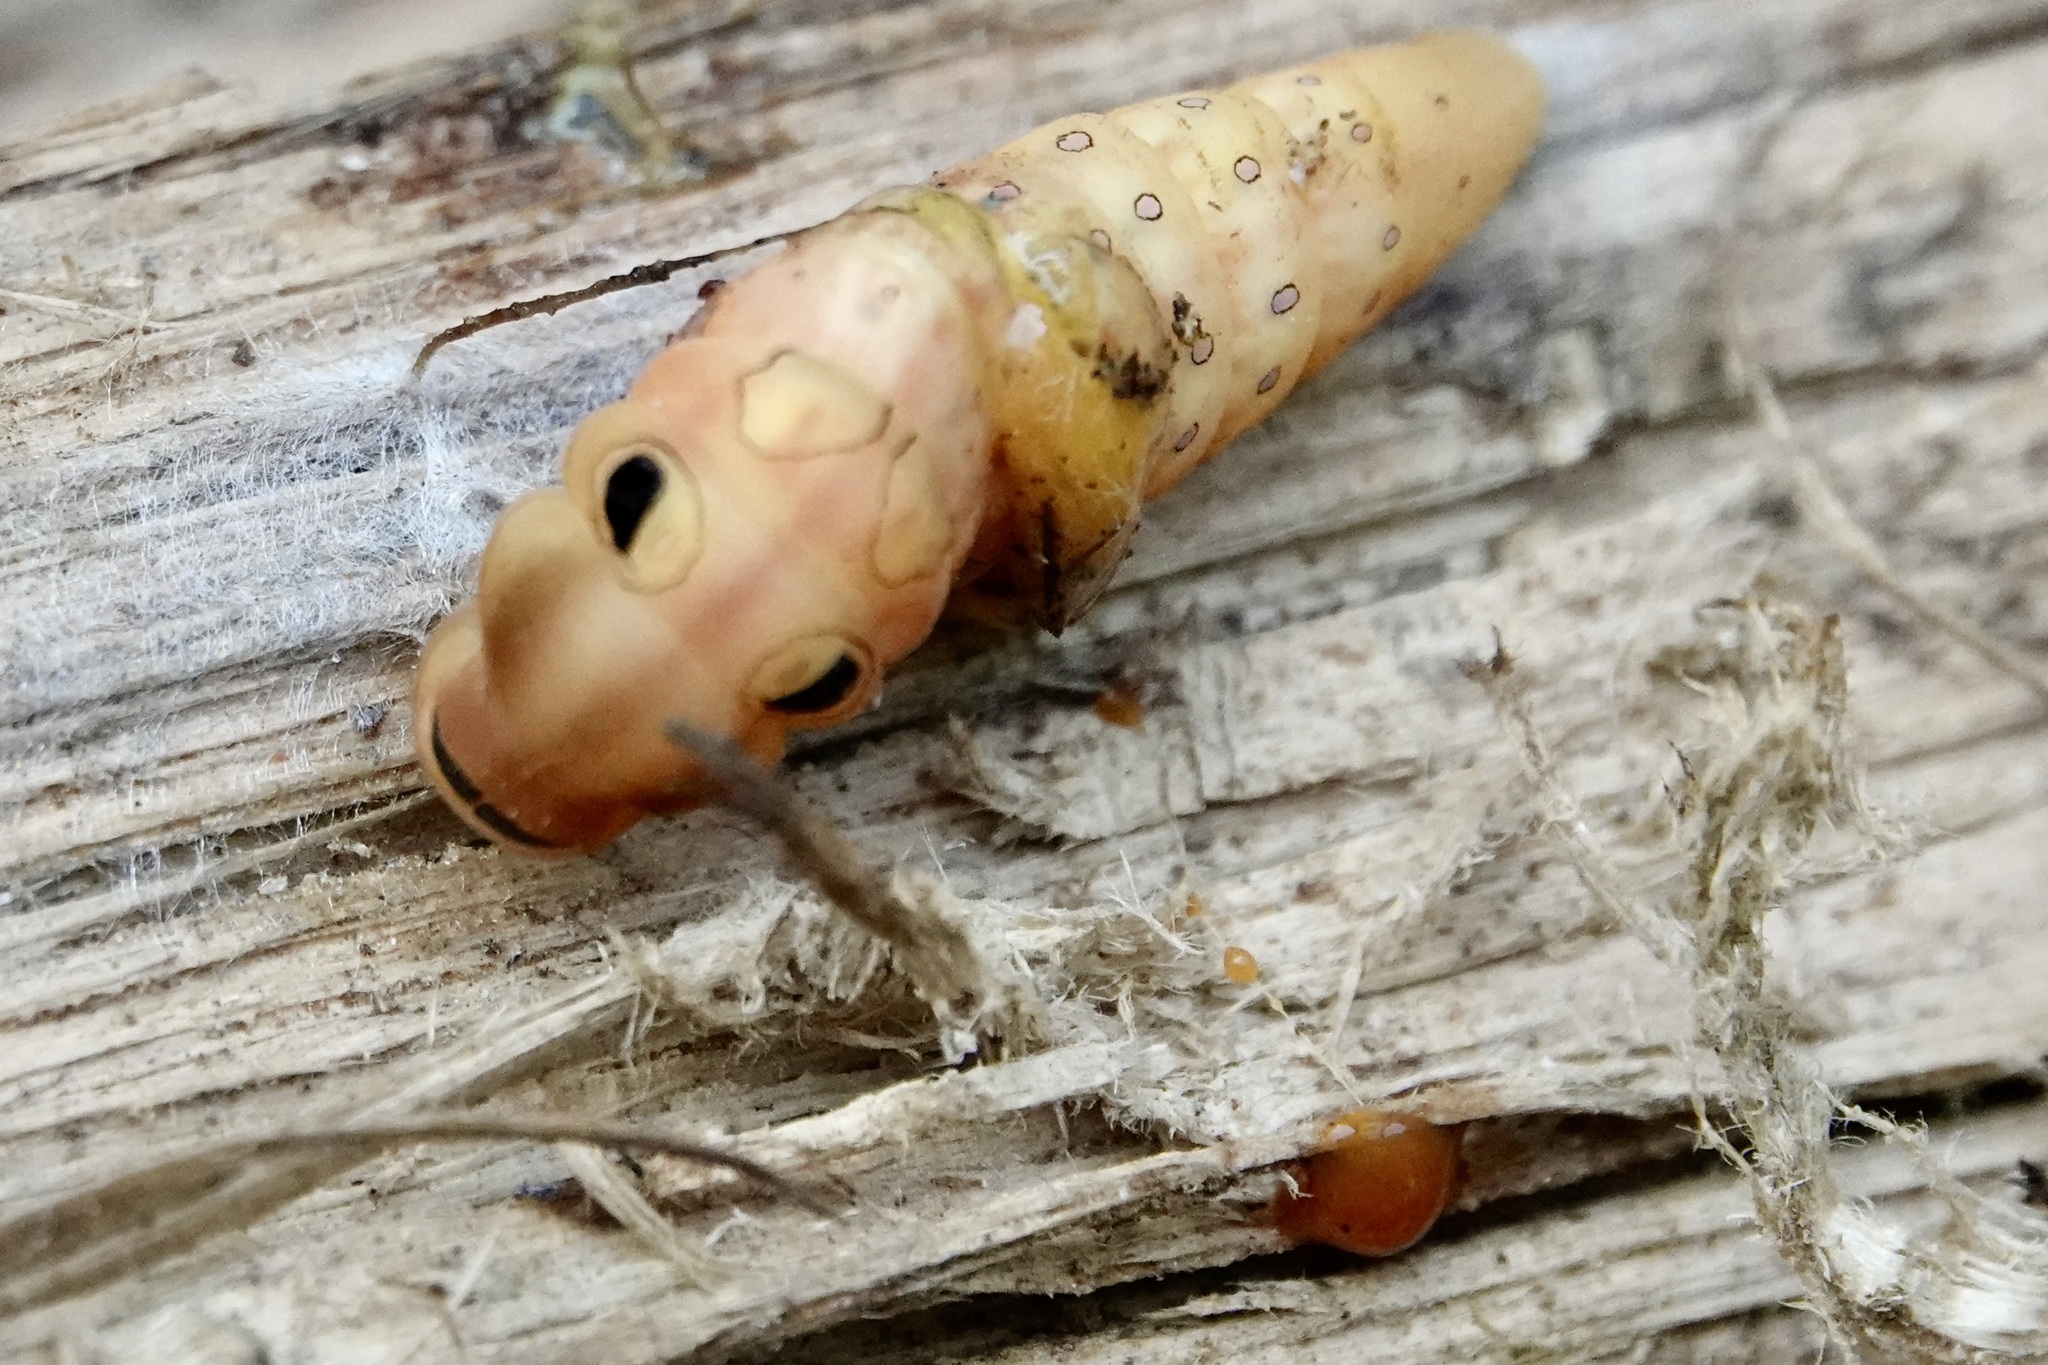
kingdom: Animalia
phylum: Arthropoda
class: Insecta
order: Lepidoptera
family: Papilionidae
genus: Papilio
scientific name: Papilio troilus
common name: Spicebush swallowtail
